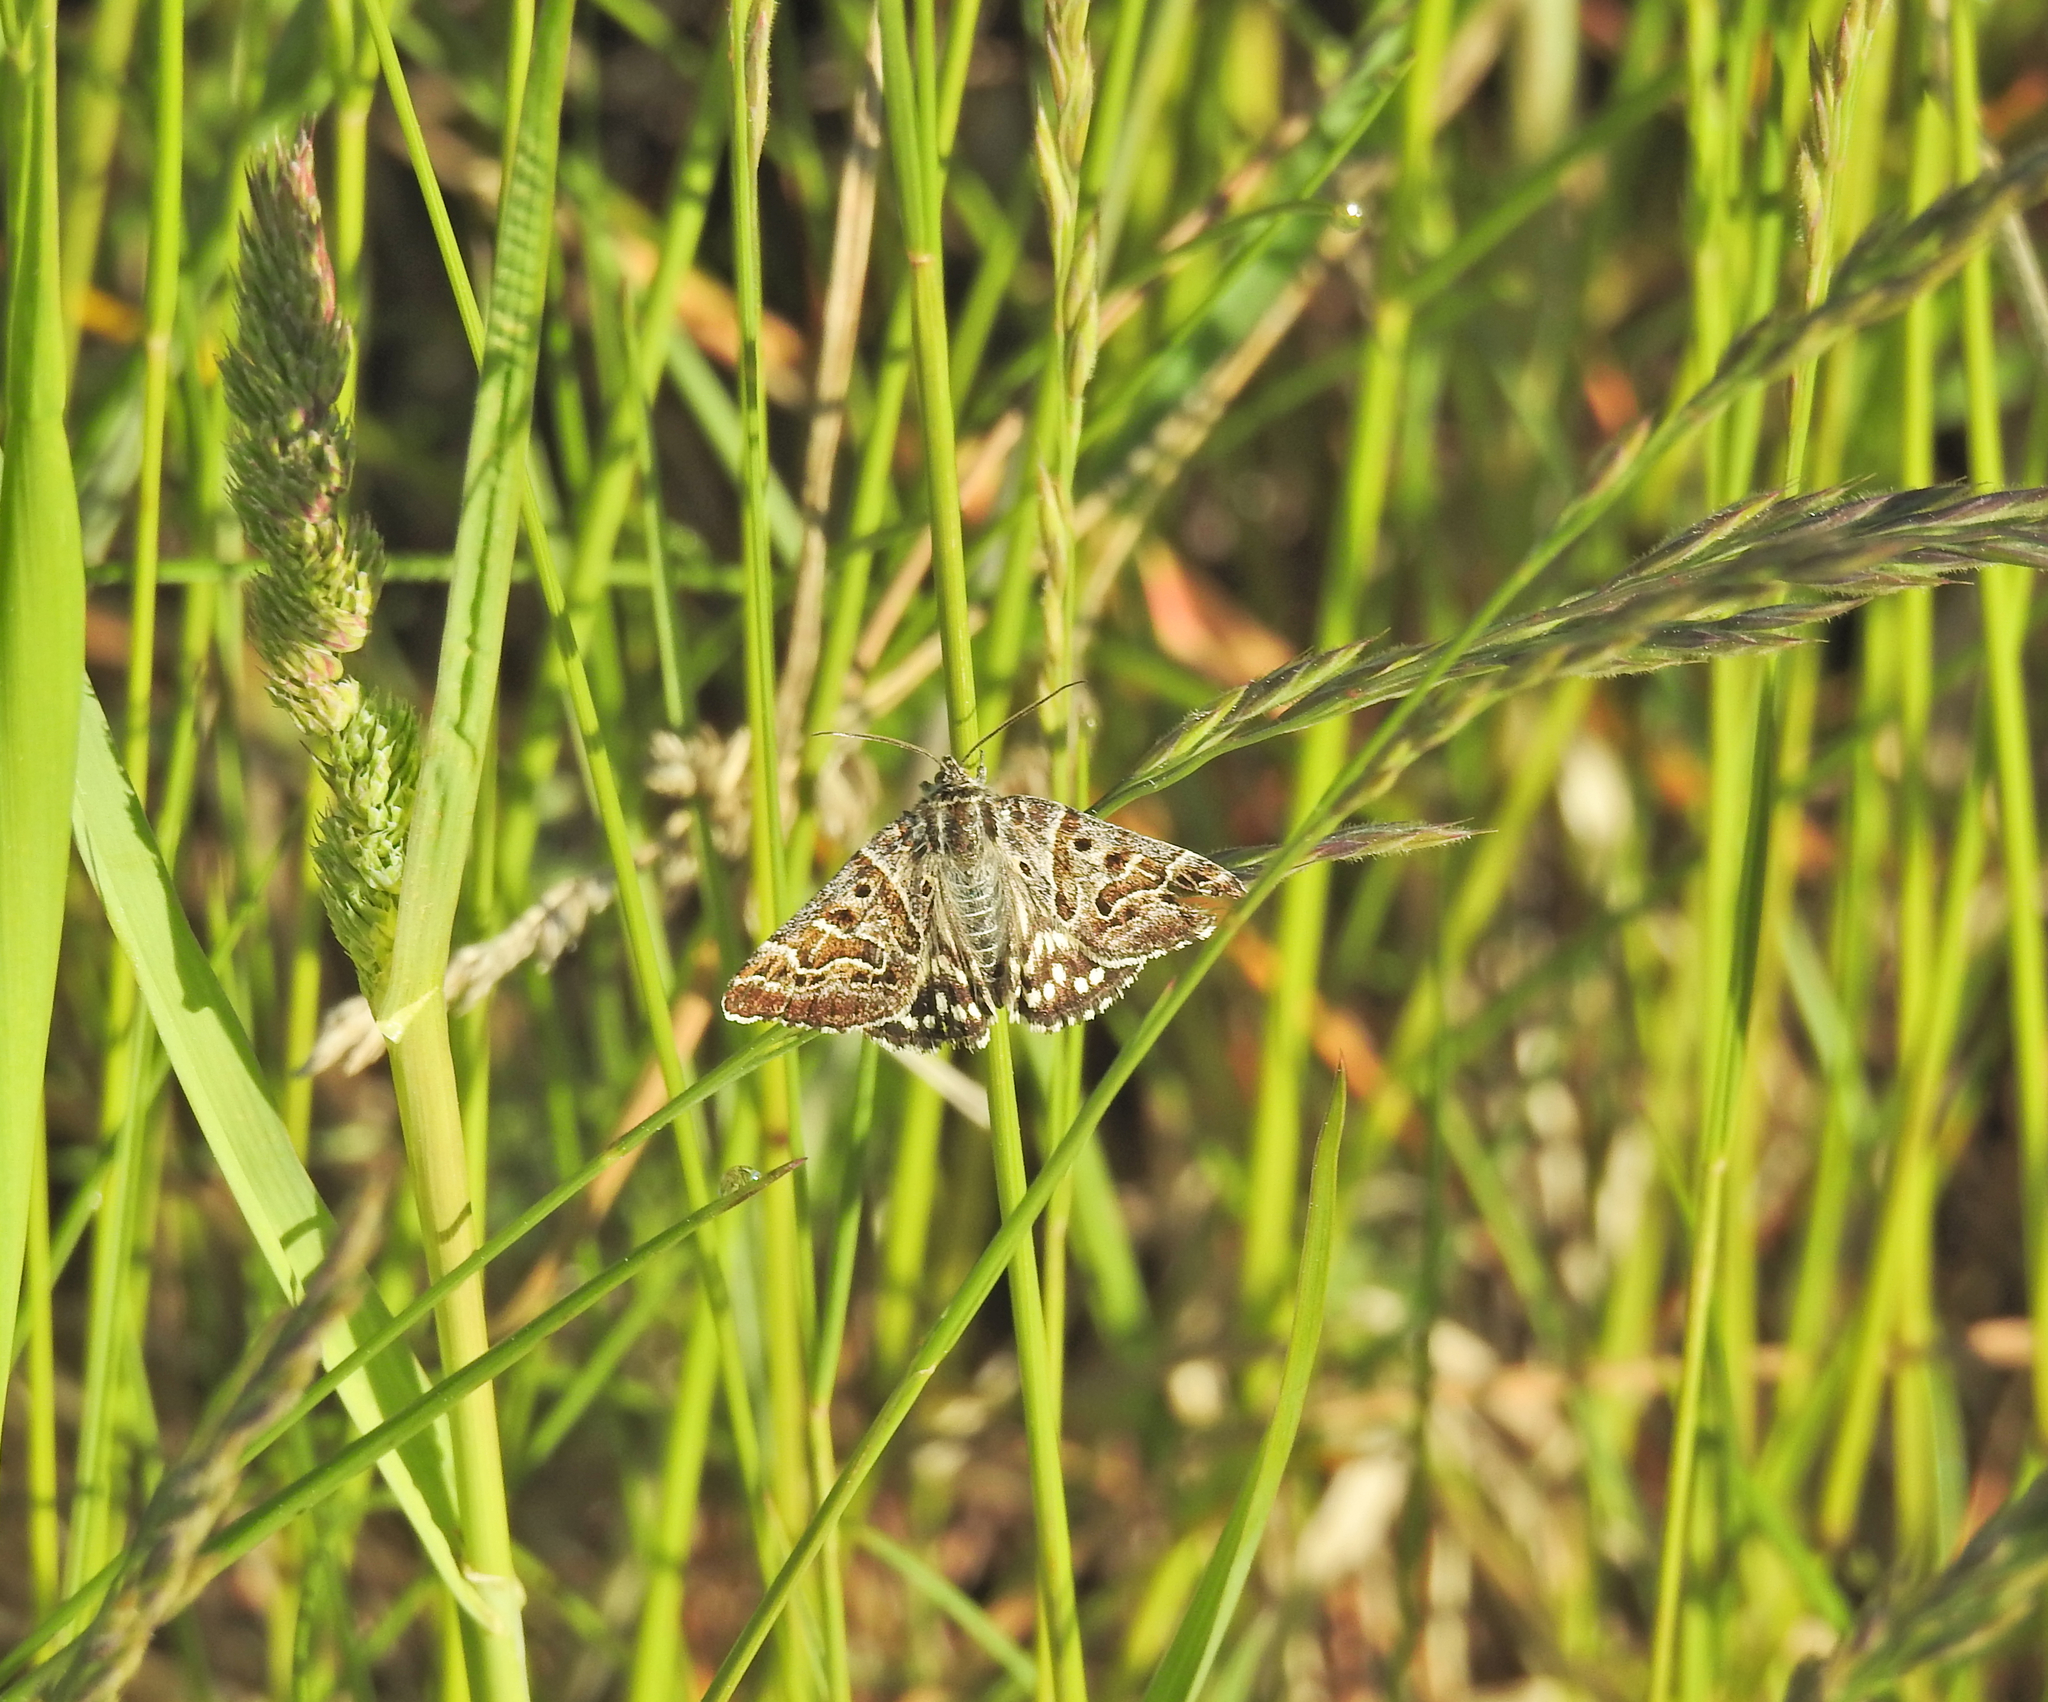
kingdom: Animalia
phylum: Arthropoda
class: Insecta
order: Lepidoptera
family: Erebidae
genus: Callistege
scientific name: Callistege mi
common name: Mother shipton
